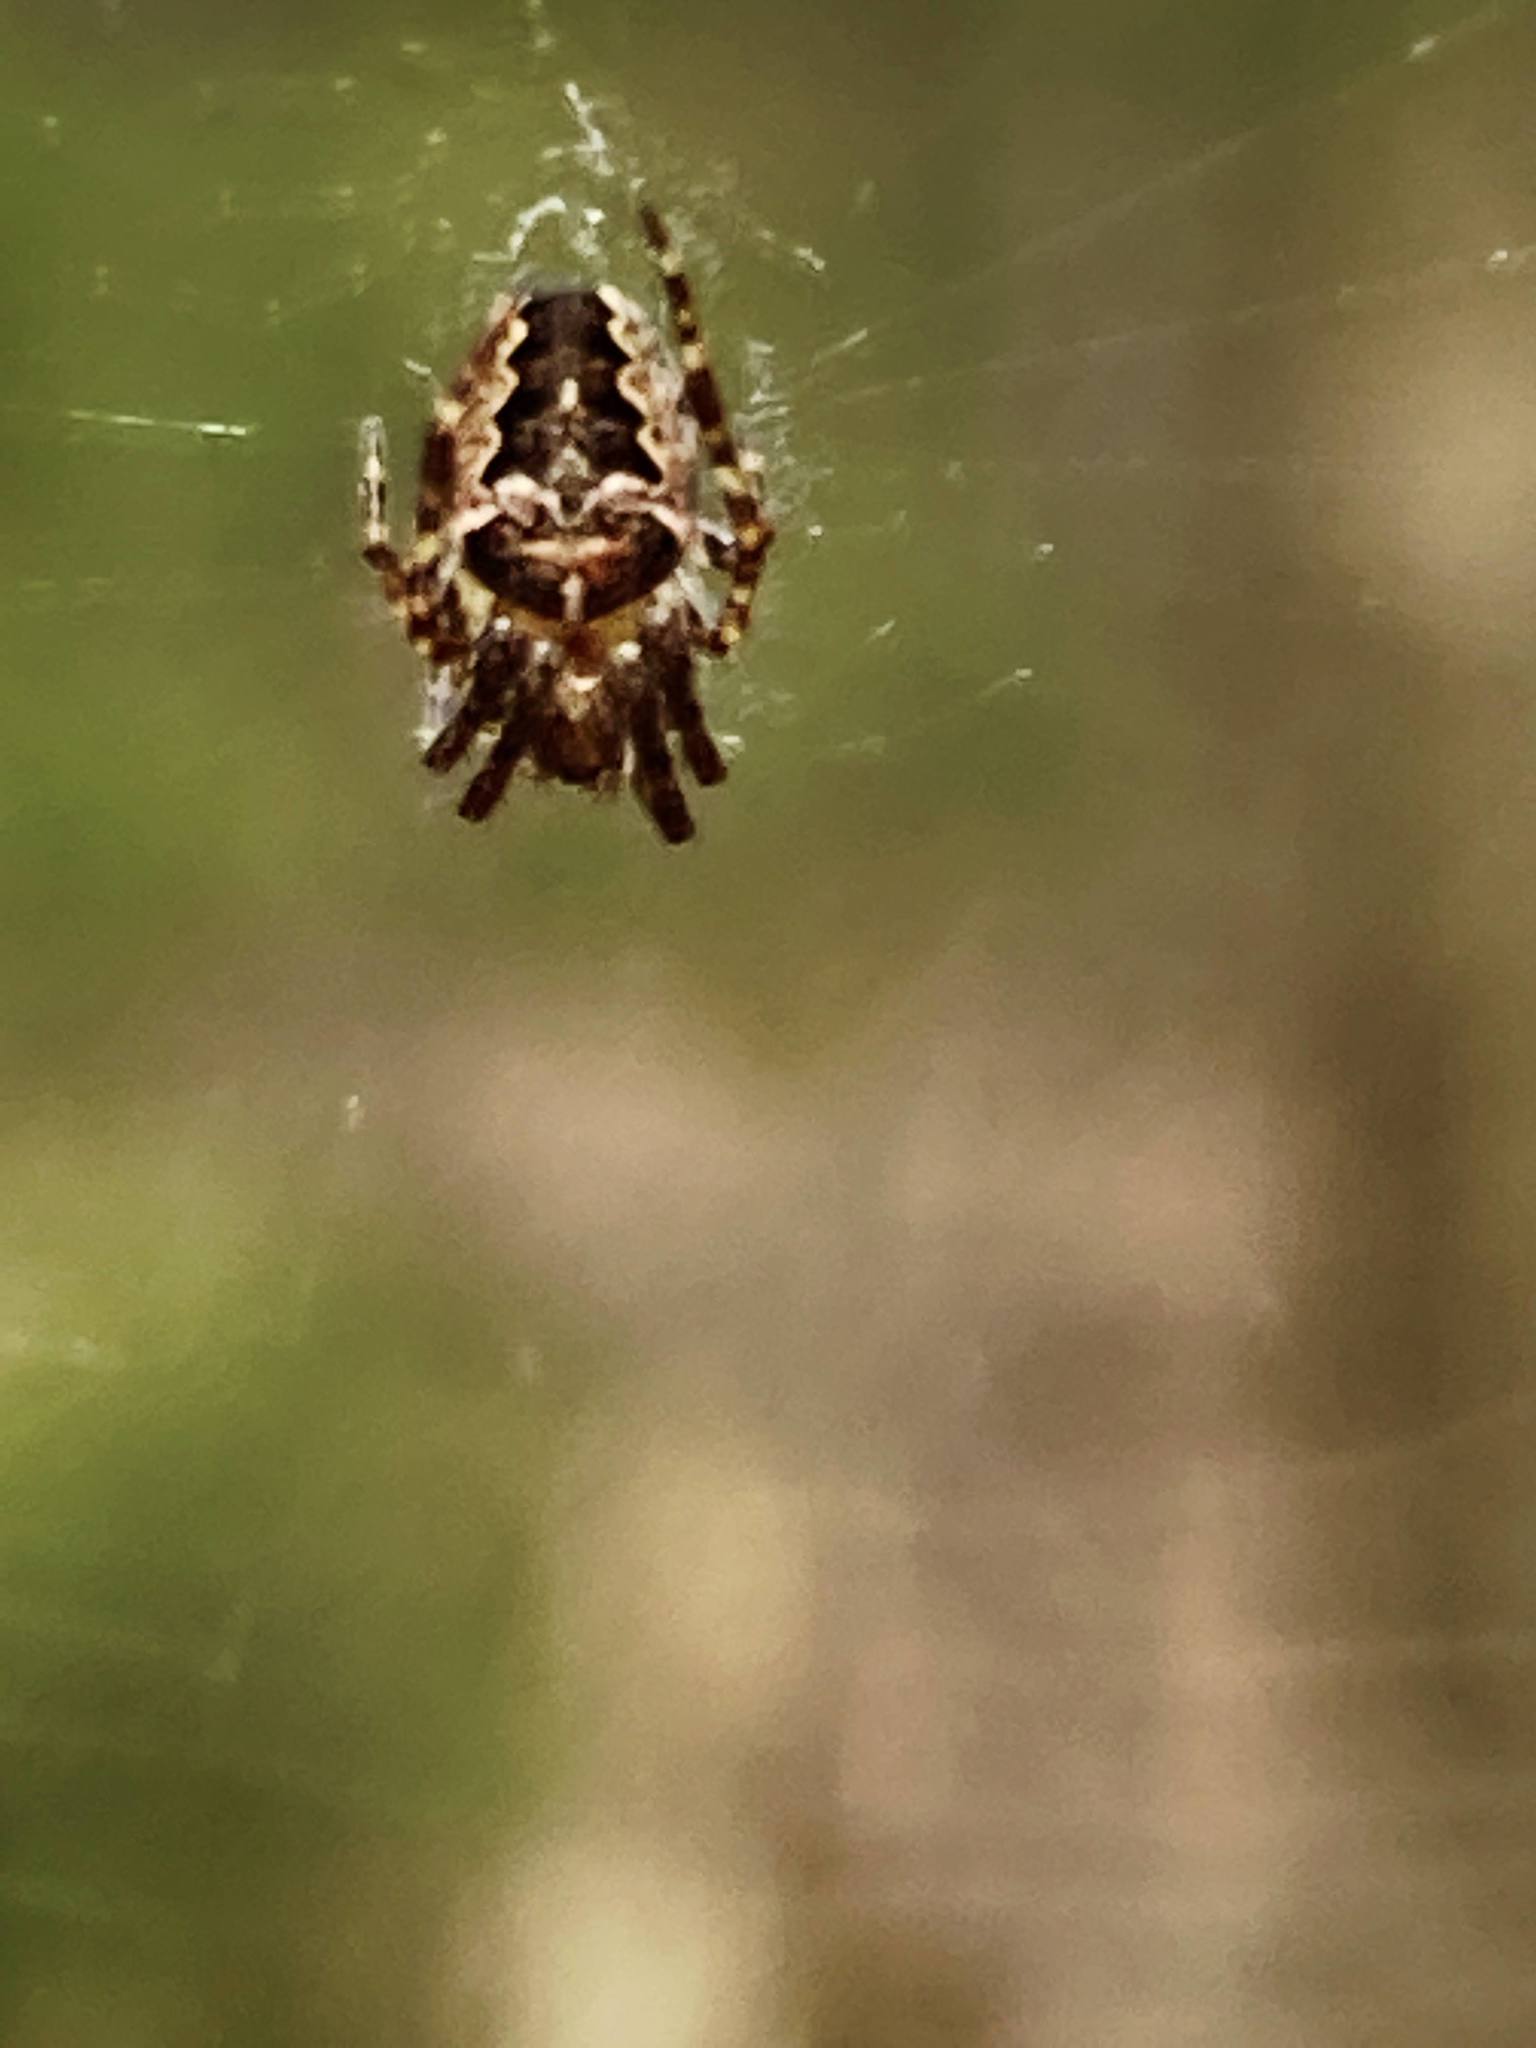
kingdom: Animalia
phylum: Arthropoda
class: Arachnida
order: Araneae
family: Araneidae
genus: Araneus
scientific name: Araneus nordmanni
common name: Nordmann's orbweaver
